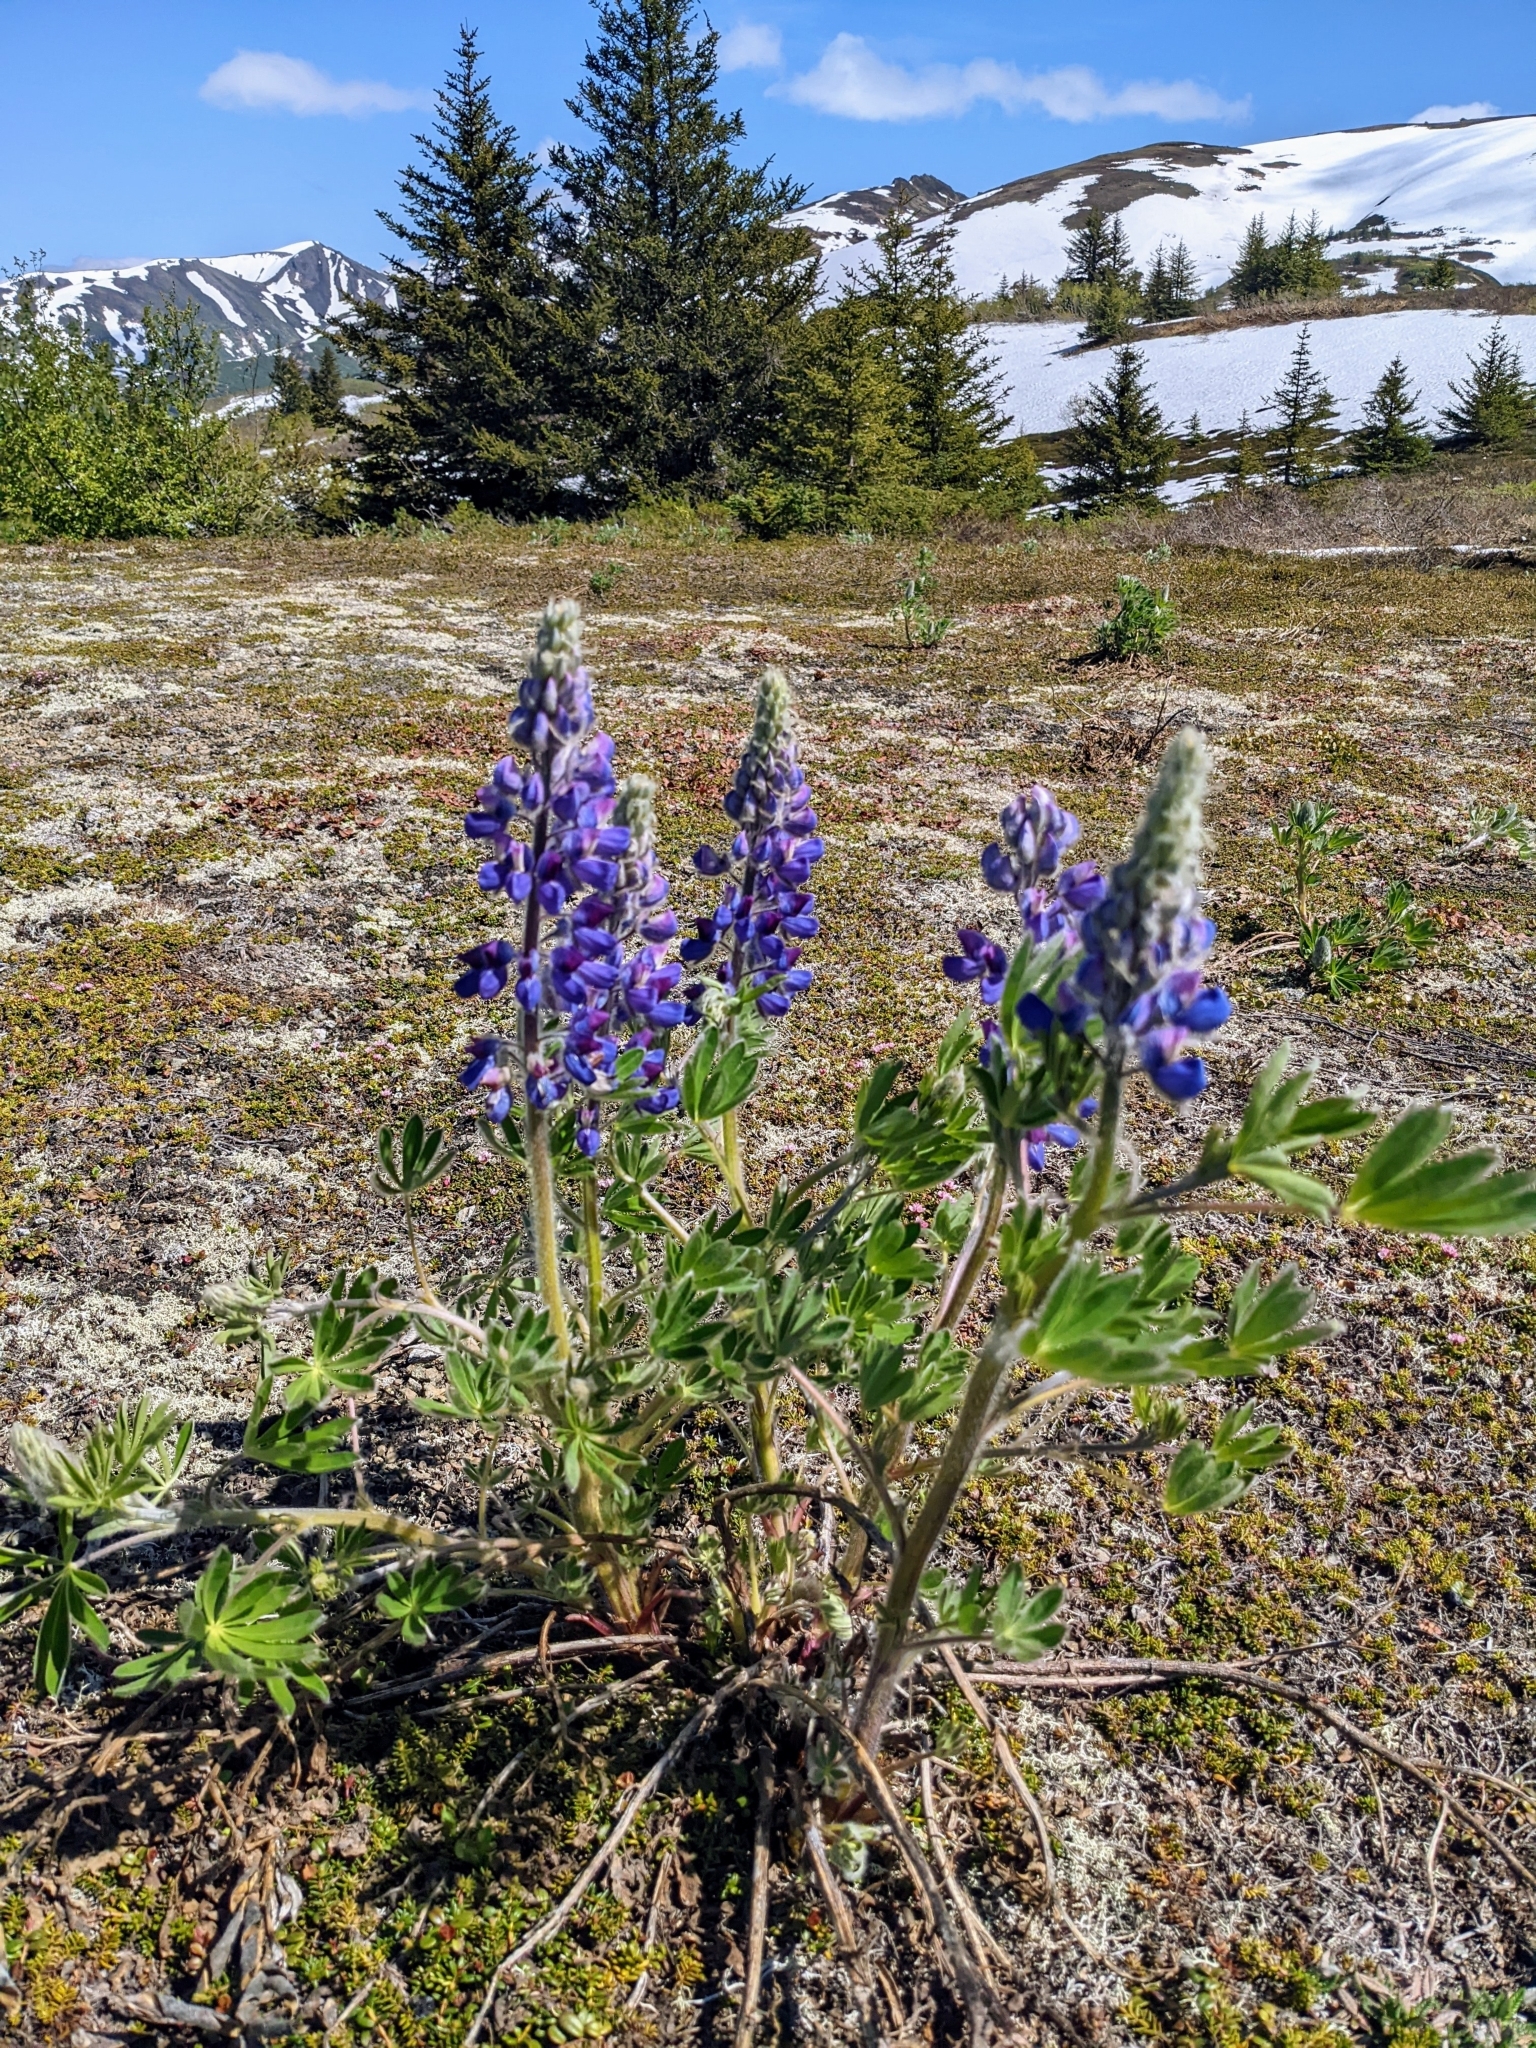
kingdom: Plantae
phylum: Tracheophyta
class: Magnoliopsida
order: Fabales
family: Fabaceae
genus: Lupinus
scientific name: Lupinus nootkatensis
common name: Nootka lupine
